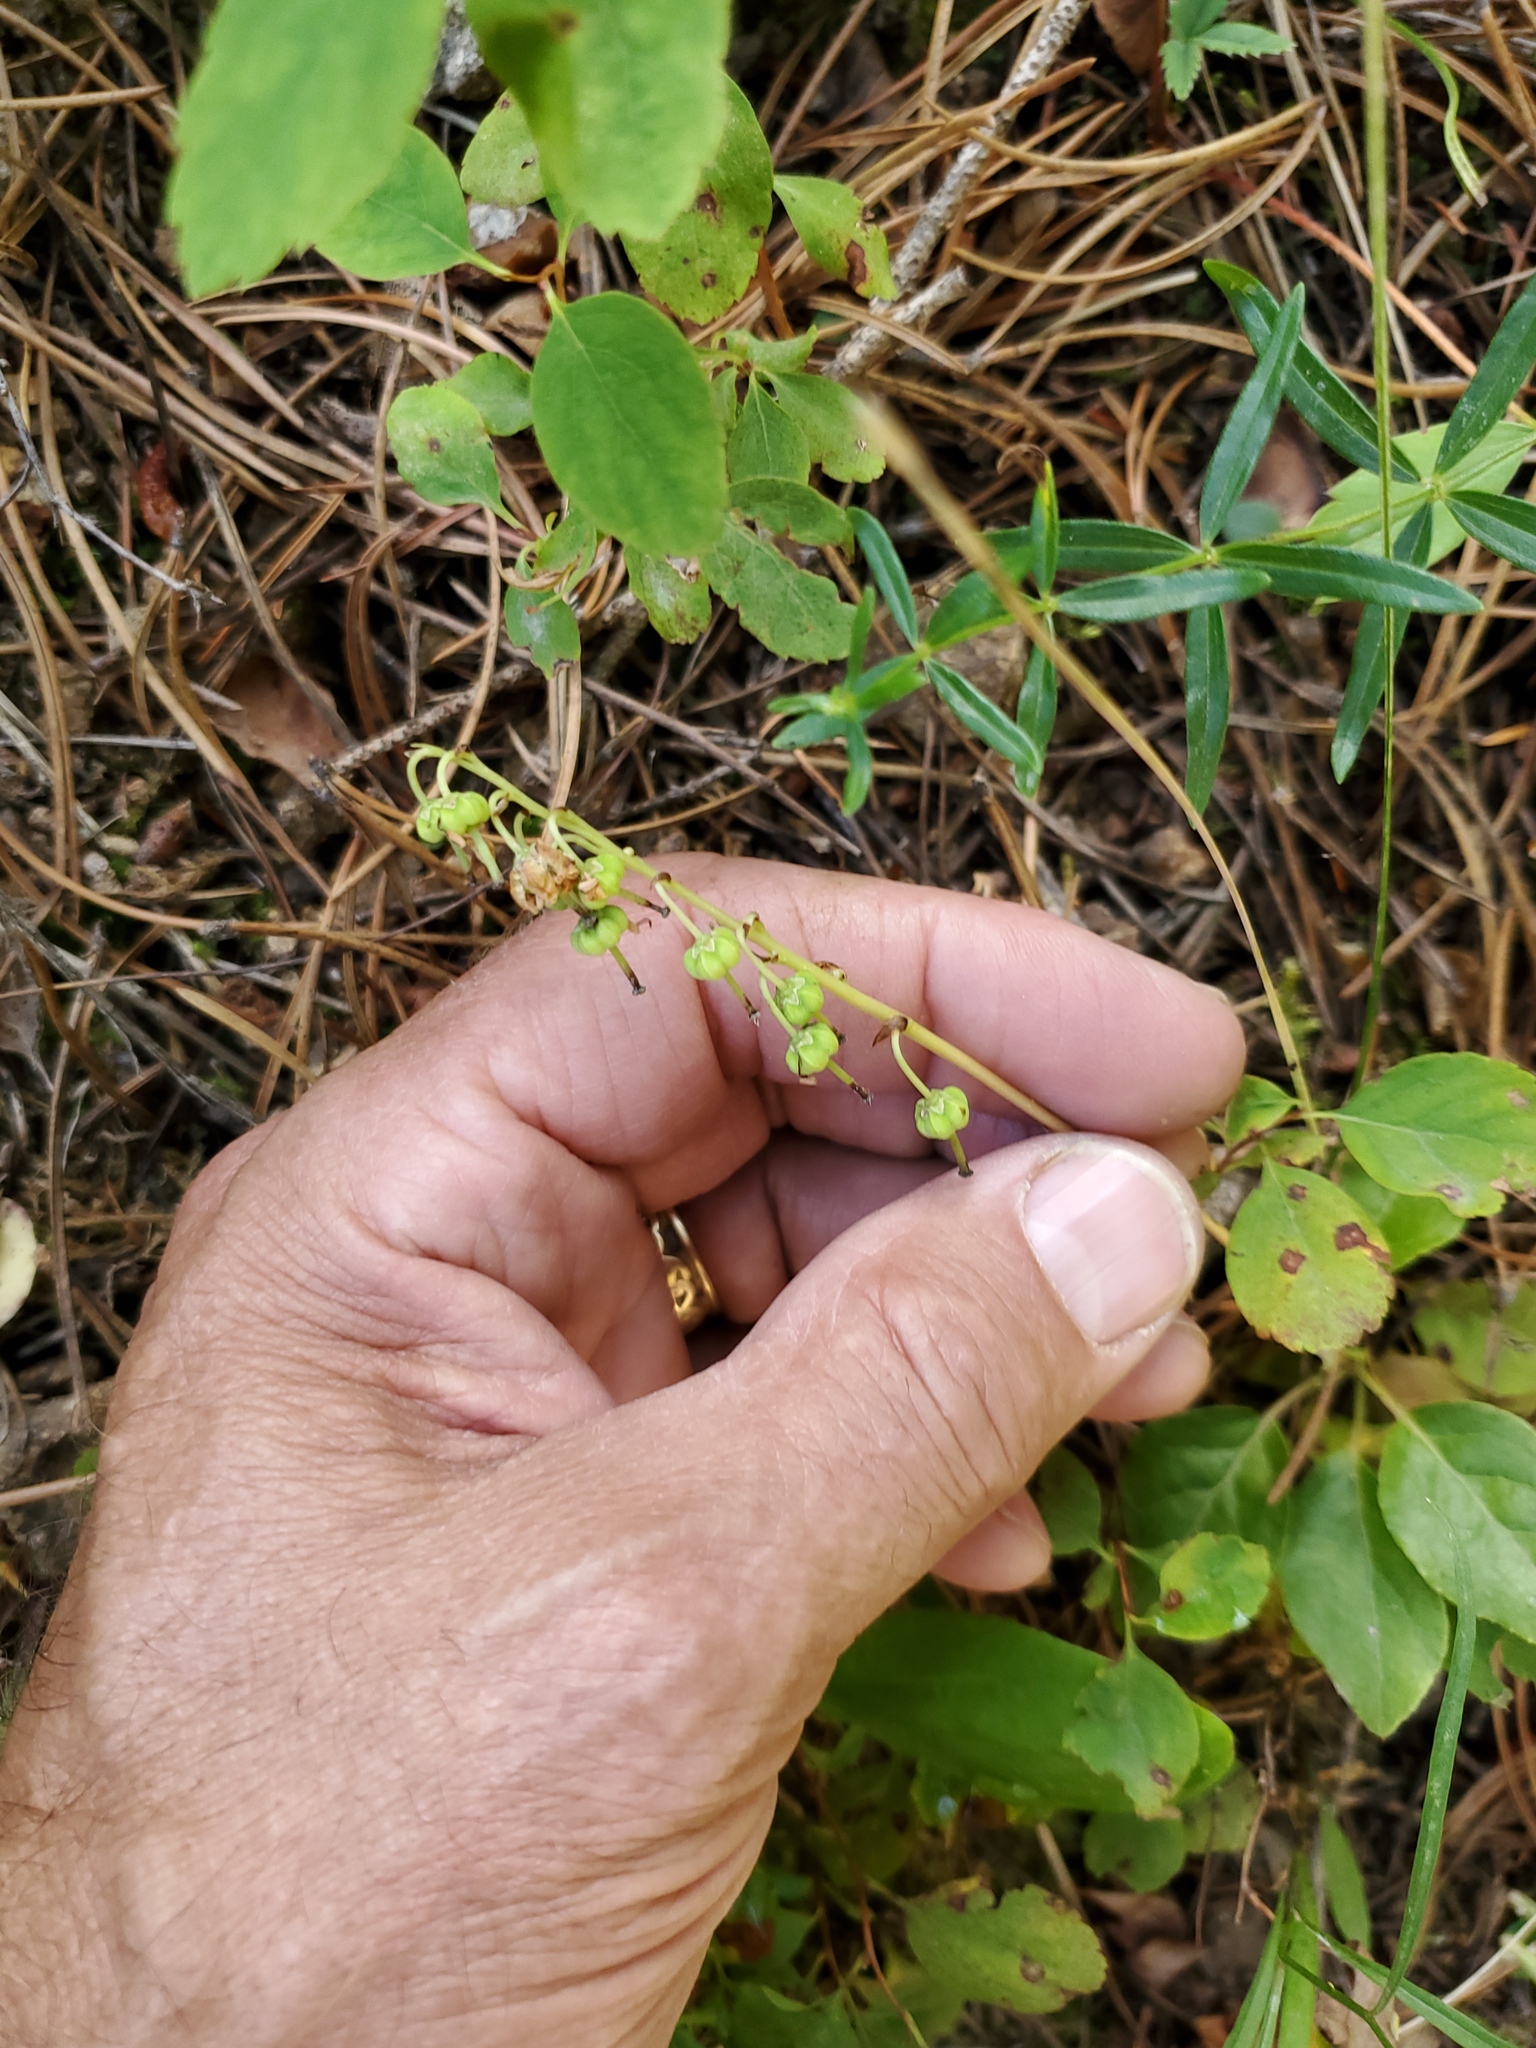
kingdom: Plantae
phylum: Tracheophyta
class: Magnoliopsida
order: Ericales
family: Ericaceae
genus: Orthilia
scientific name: Orthilia secunda
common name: One-sided orthilia
